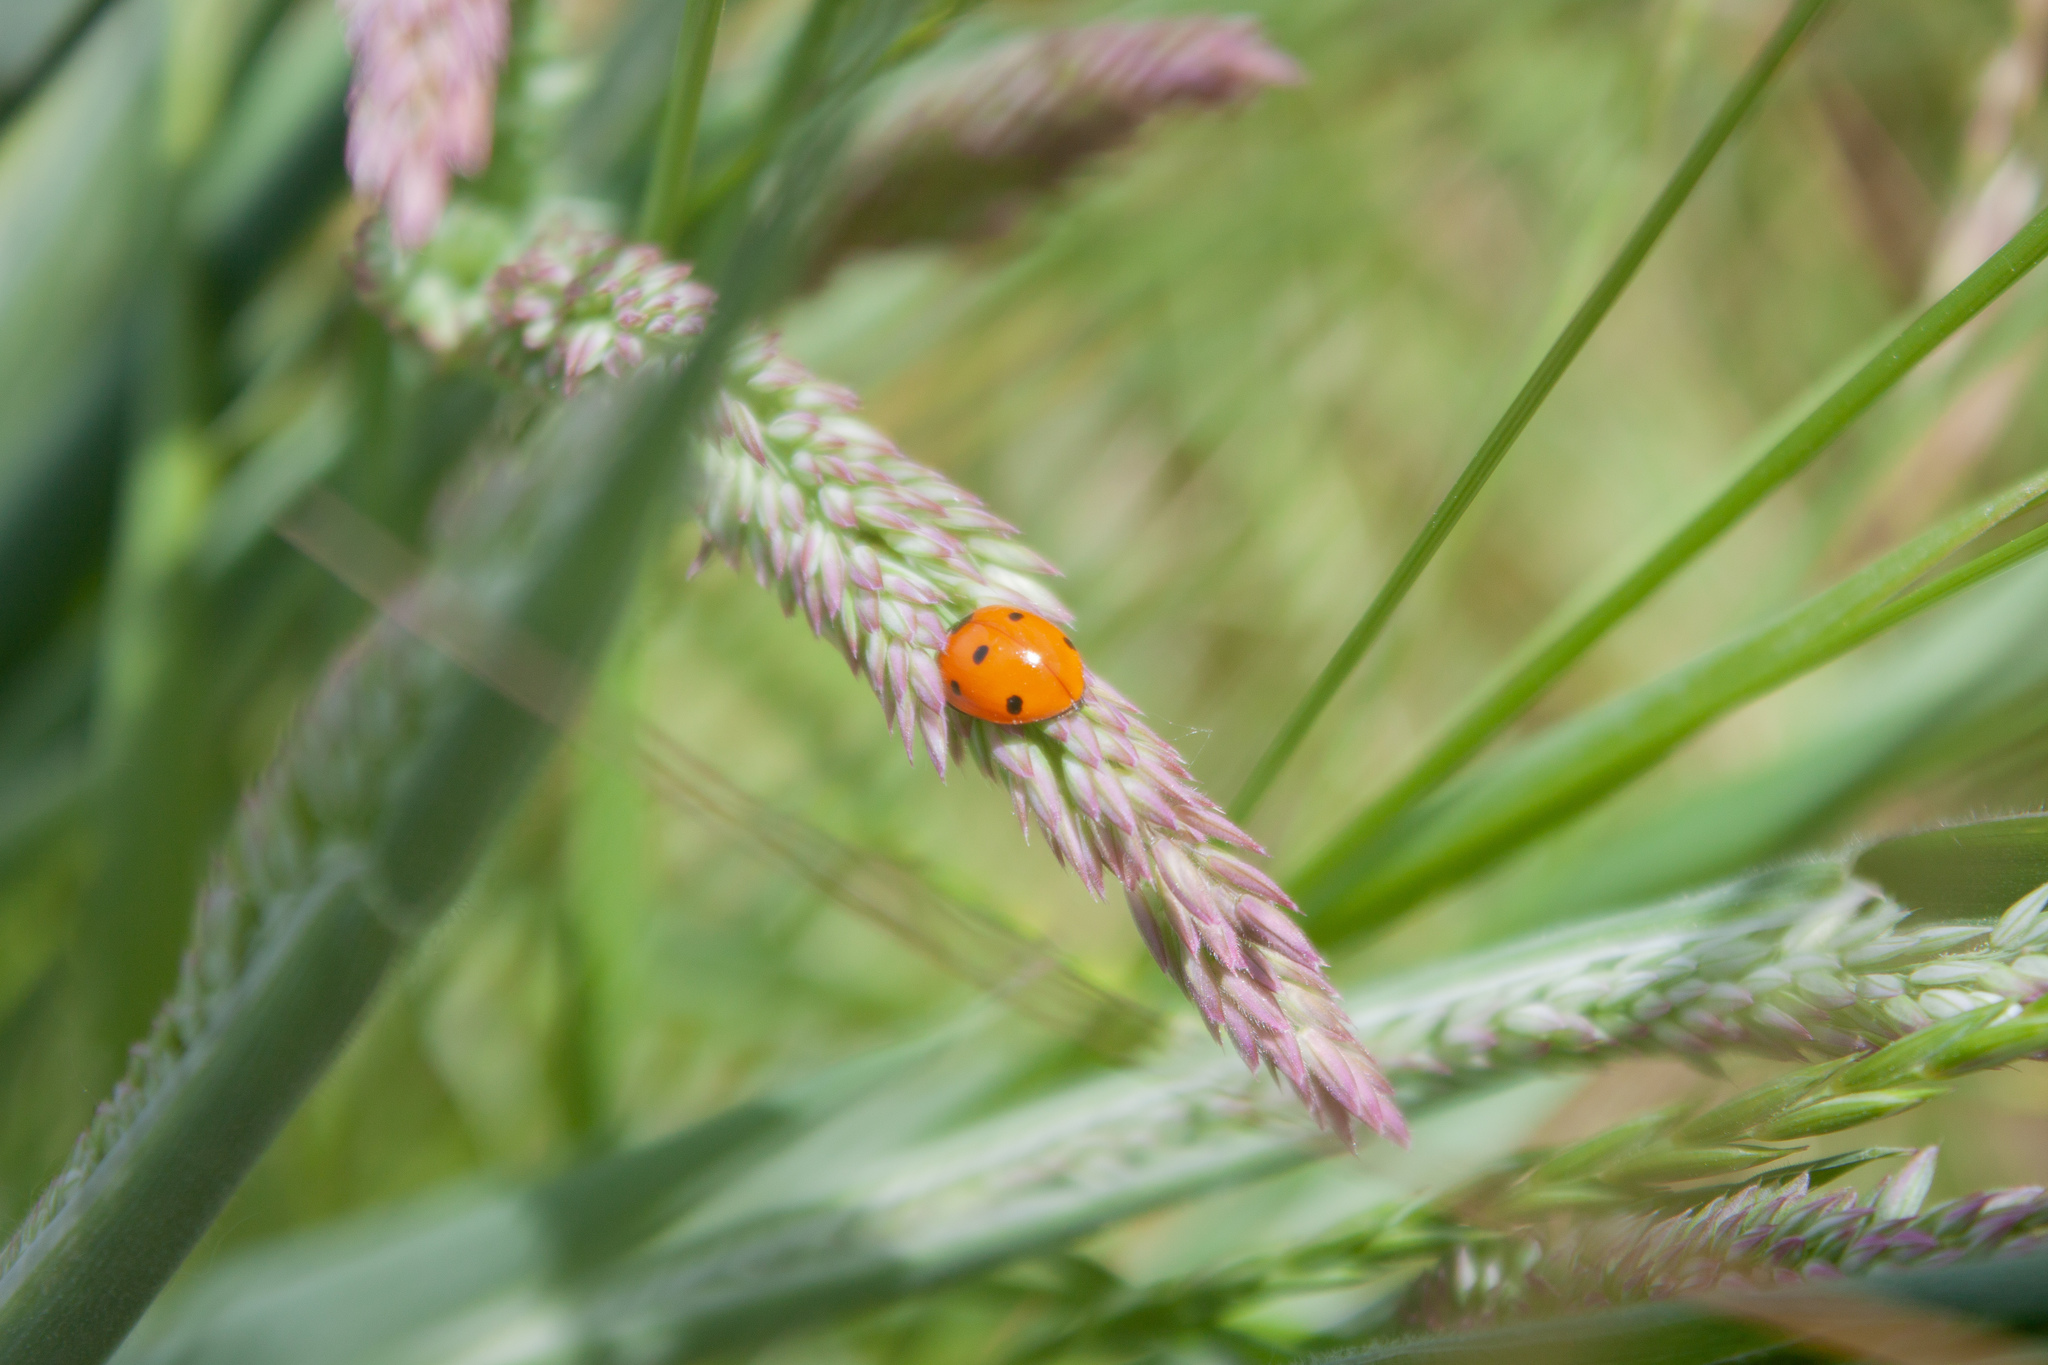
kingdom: Animalia
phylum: Arthropoda
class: Insecta
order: Coleoptera
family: Coccinellidae
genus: Coccinella
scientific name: Coccinella septempunctata
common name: Sevenspotted lady beetle
